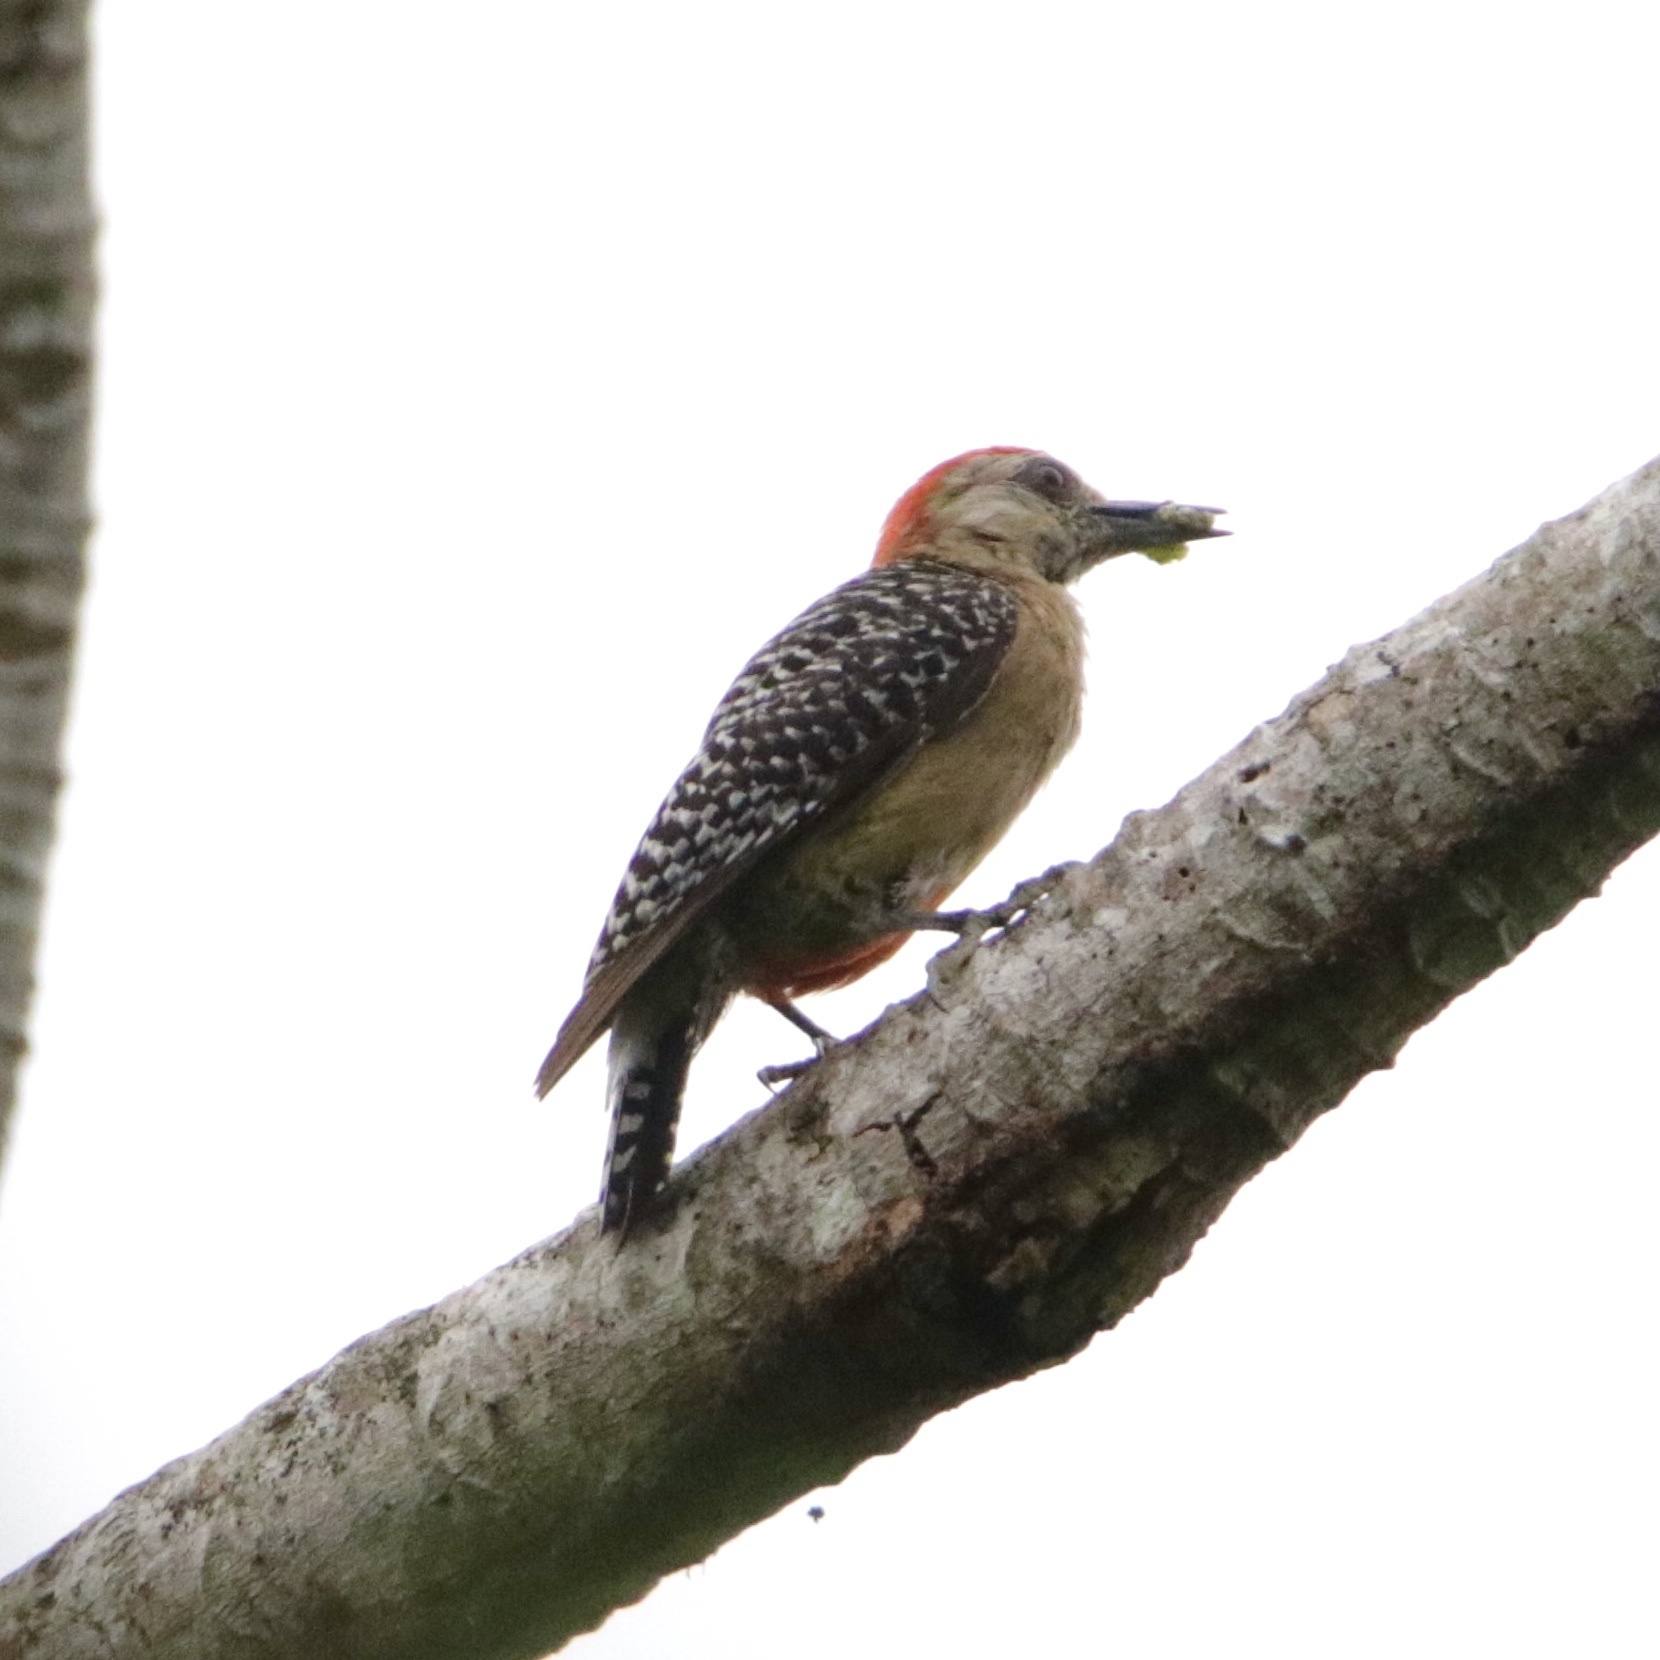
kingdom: Animalia
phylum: Chordata
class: Aves
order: Piciformes
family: Picidae
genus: Melanerpes
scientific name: Melanerpes rubricapillus
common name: Red-crowned woodpecker
